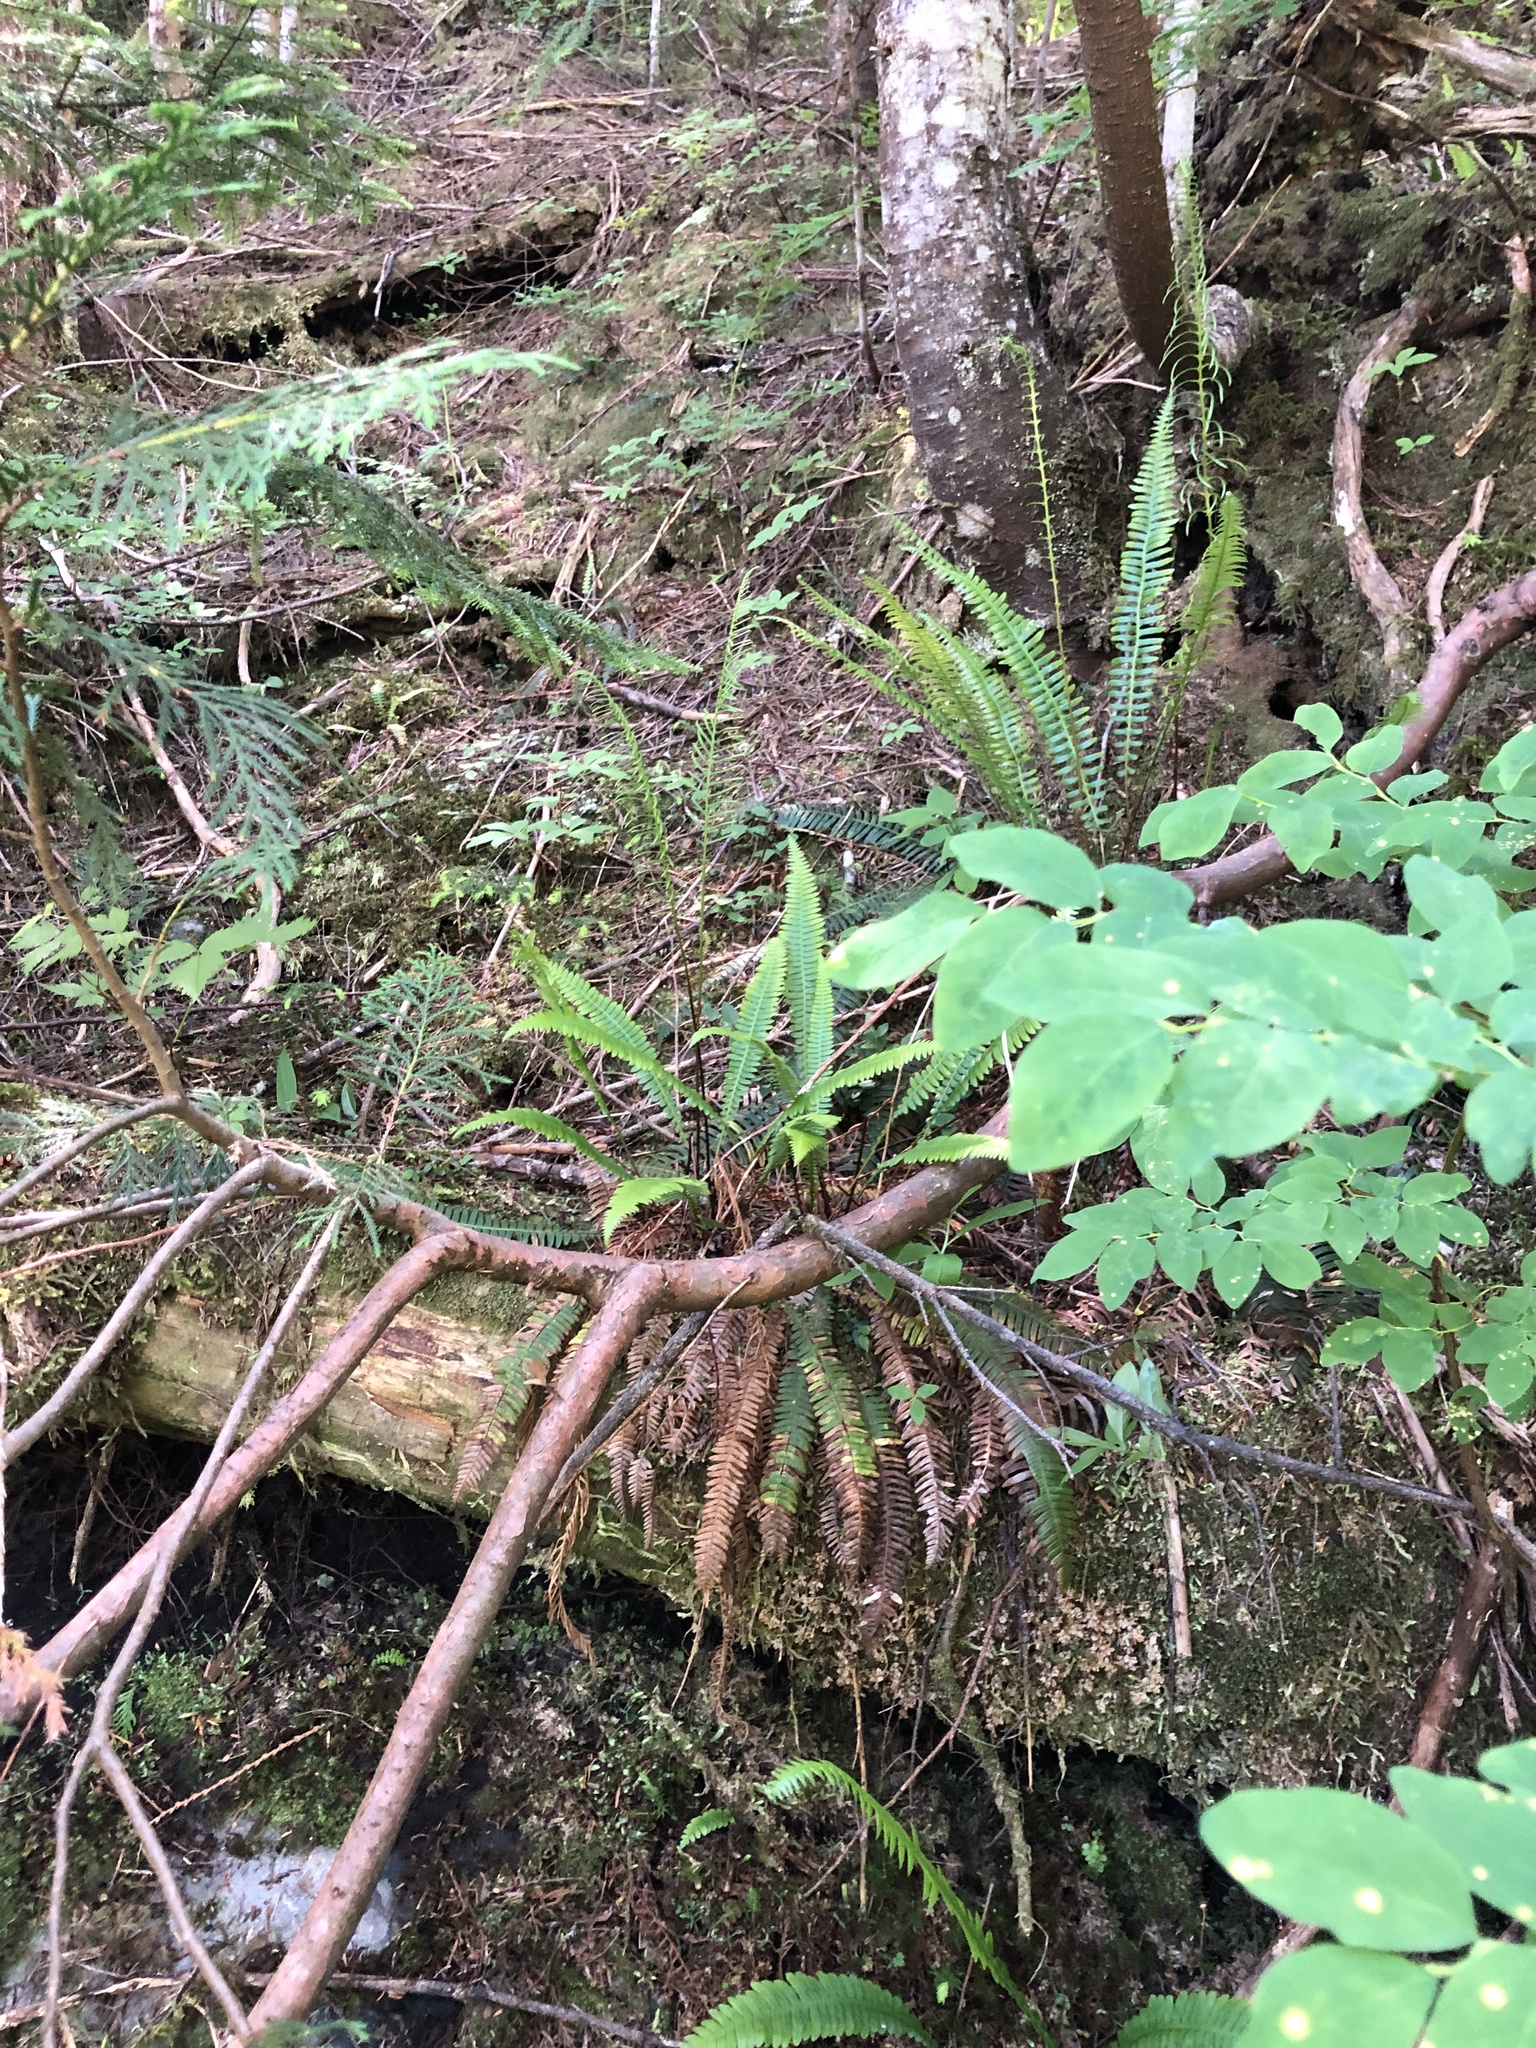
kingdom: Plantae
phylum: Tracheophyta
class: Pinopsida
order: Pinales
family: Cupressaceae
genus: Xanthocyparis
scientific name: Xanthocyparis nootkatensis
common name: Nootka cypress
